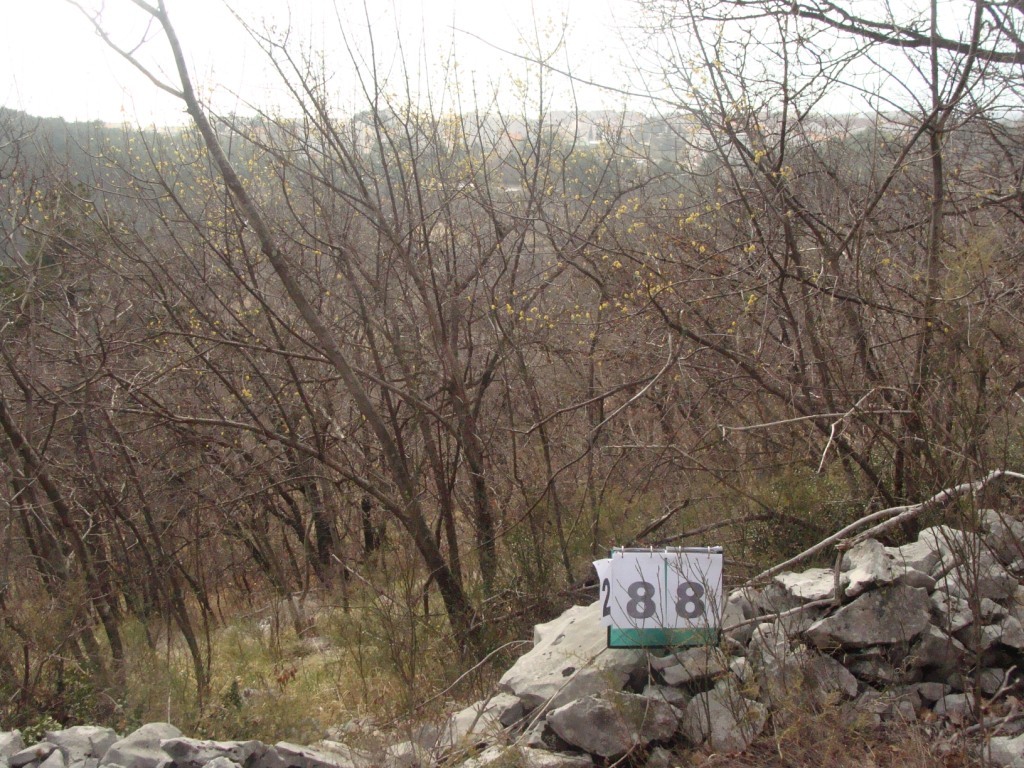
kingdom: Plantae
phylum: Tracheophyta
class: Magnoliopsida
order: Cornales
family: Cornaceae
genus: Cornus
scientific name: Cornus mas
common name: Cornelian-cherry
